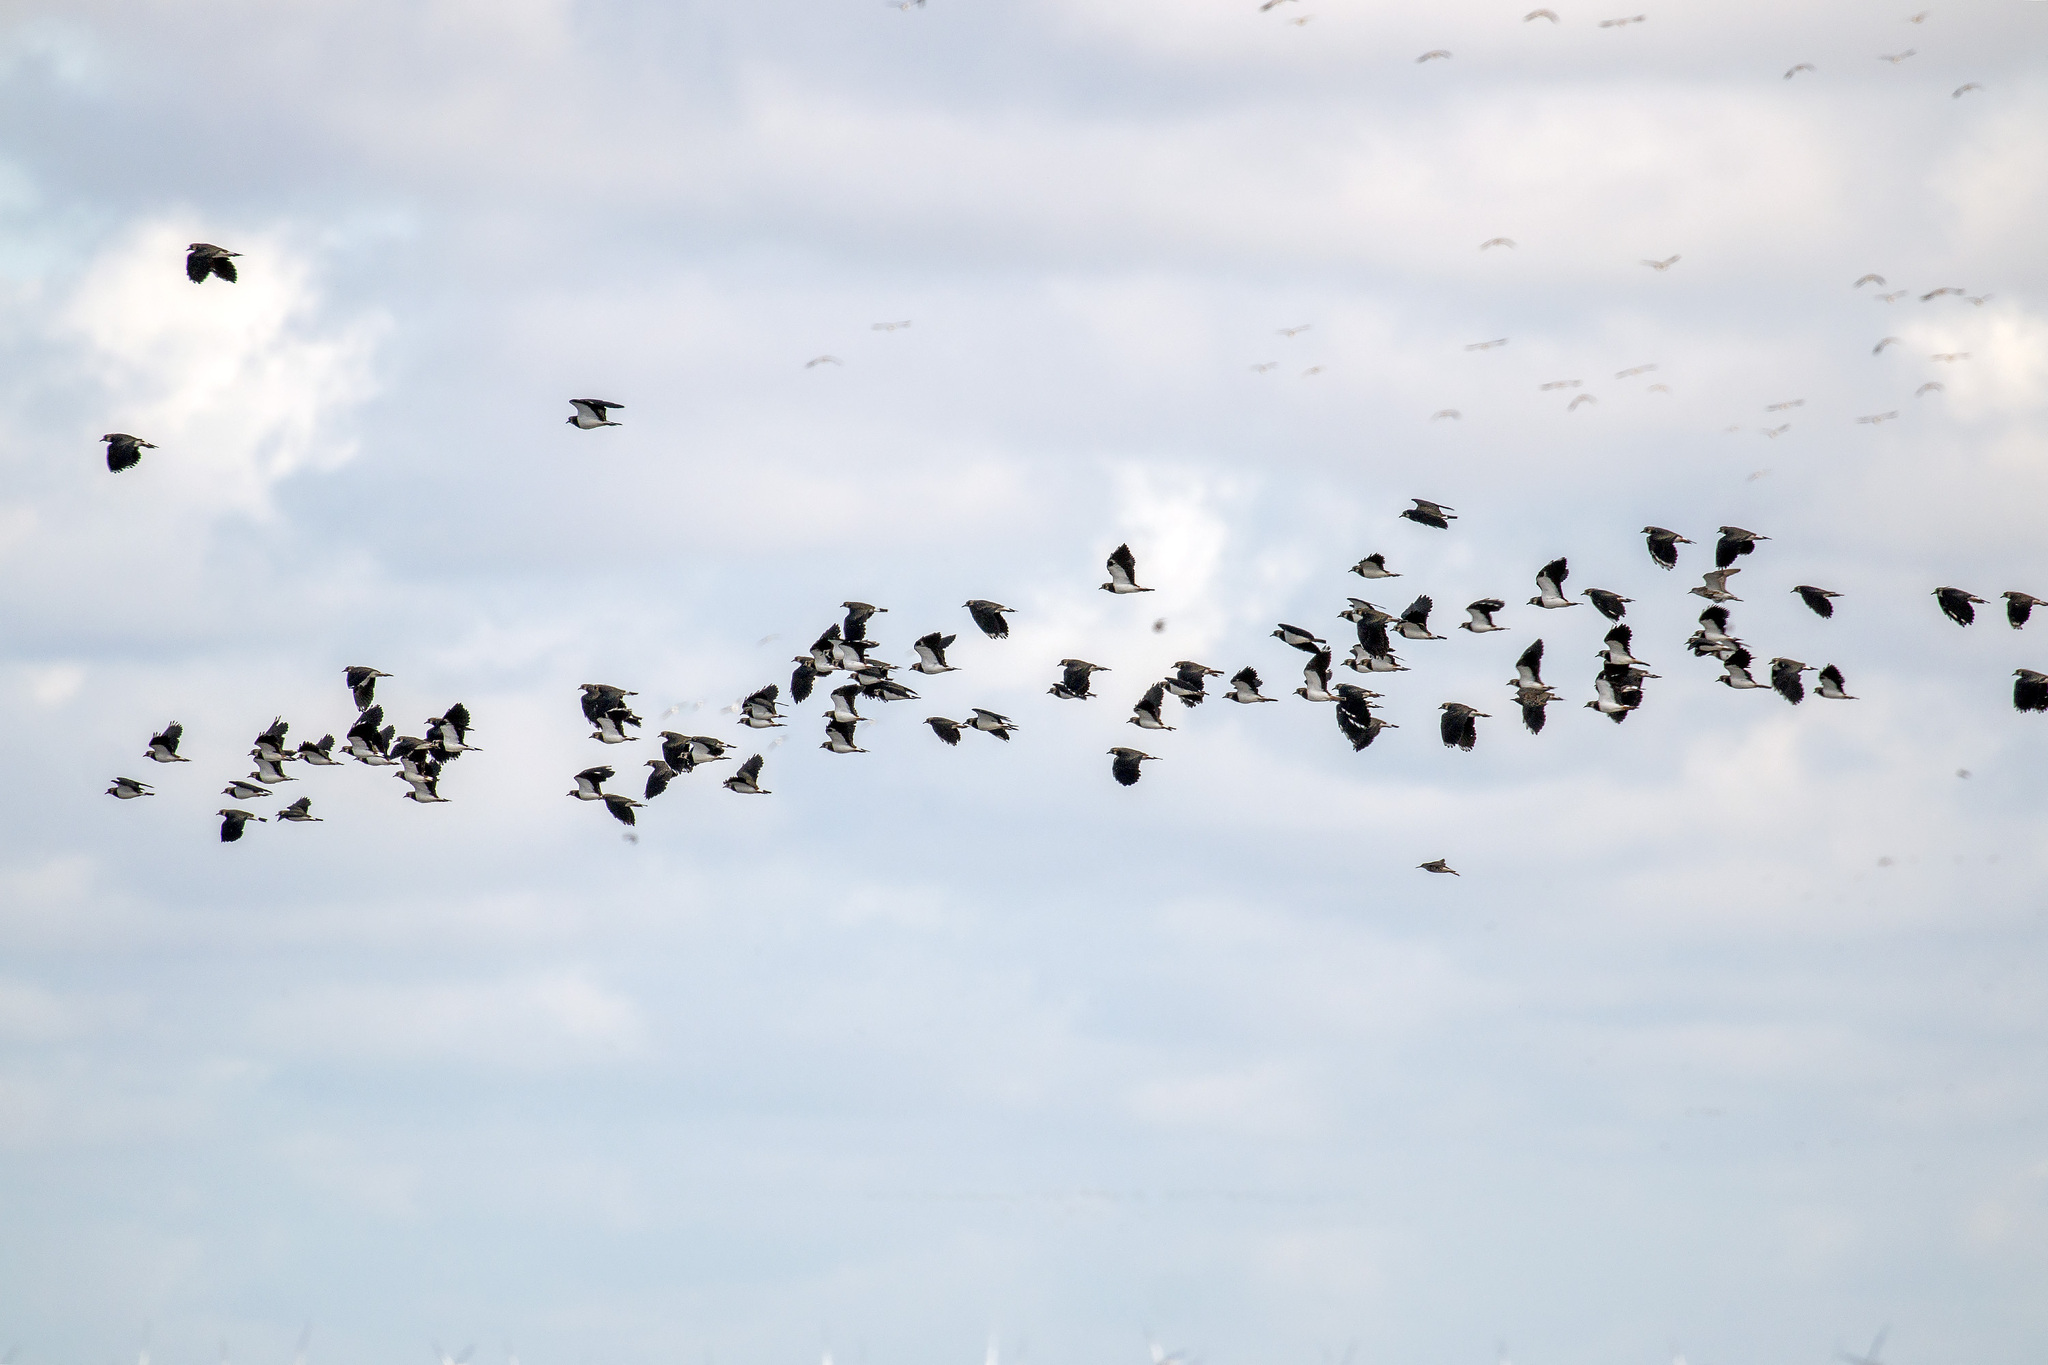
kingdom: Animalia
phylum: Chordata
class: Aves
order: Charadriiformes
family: Charadriidae
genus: Vanellus
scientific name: Vanellus vanellus
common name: Northern lapwing
